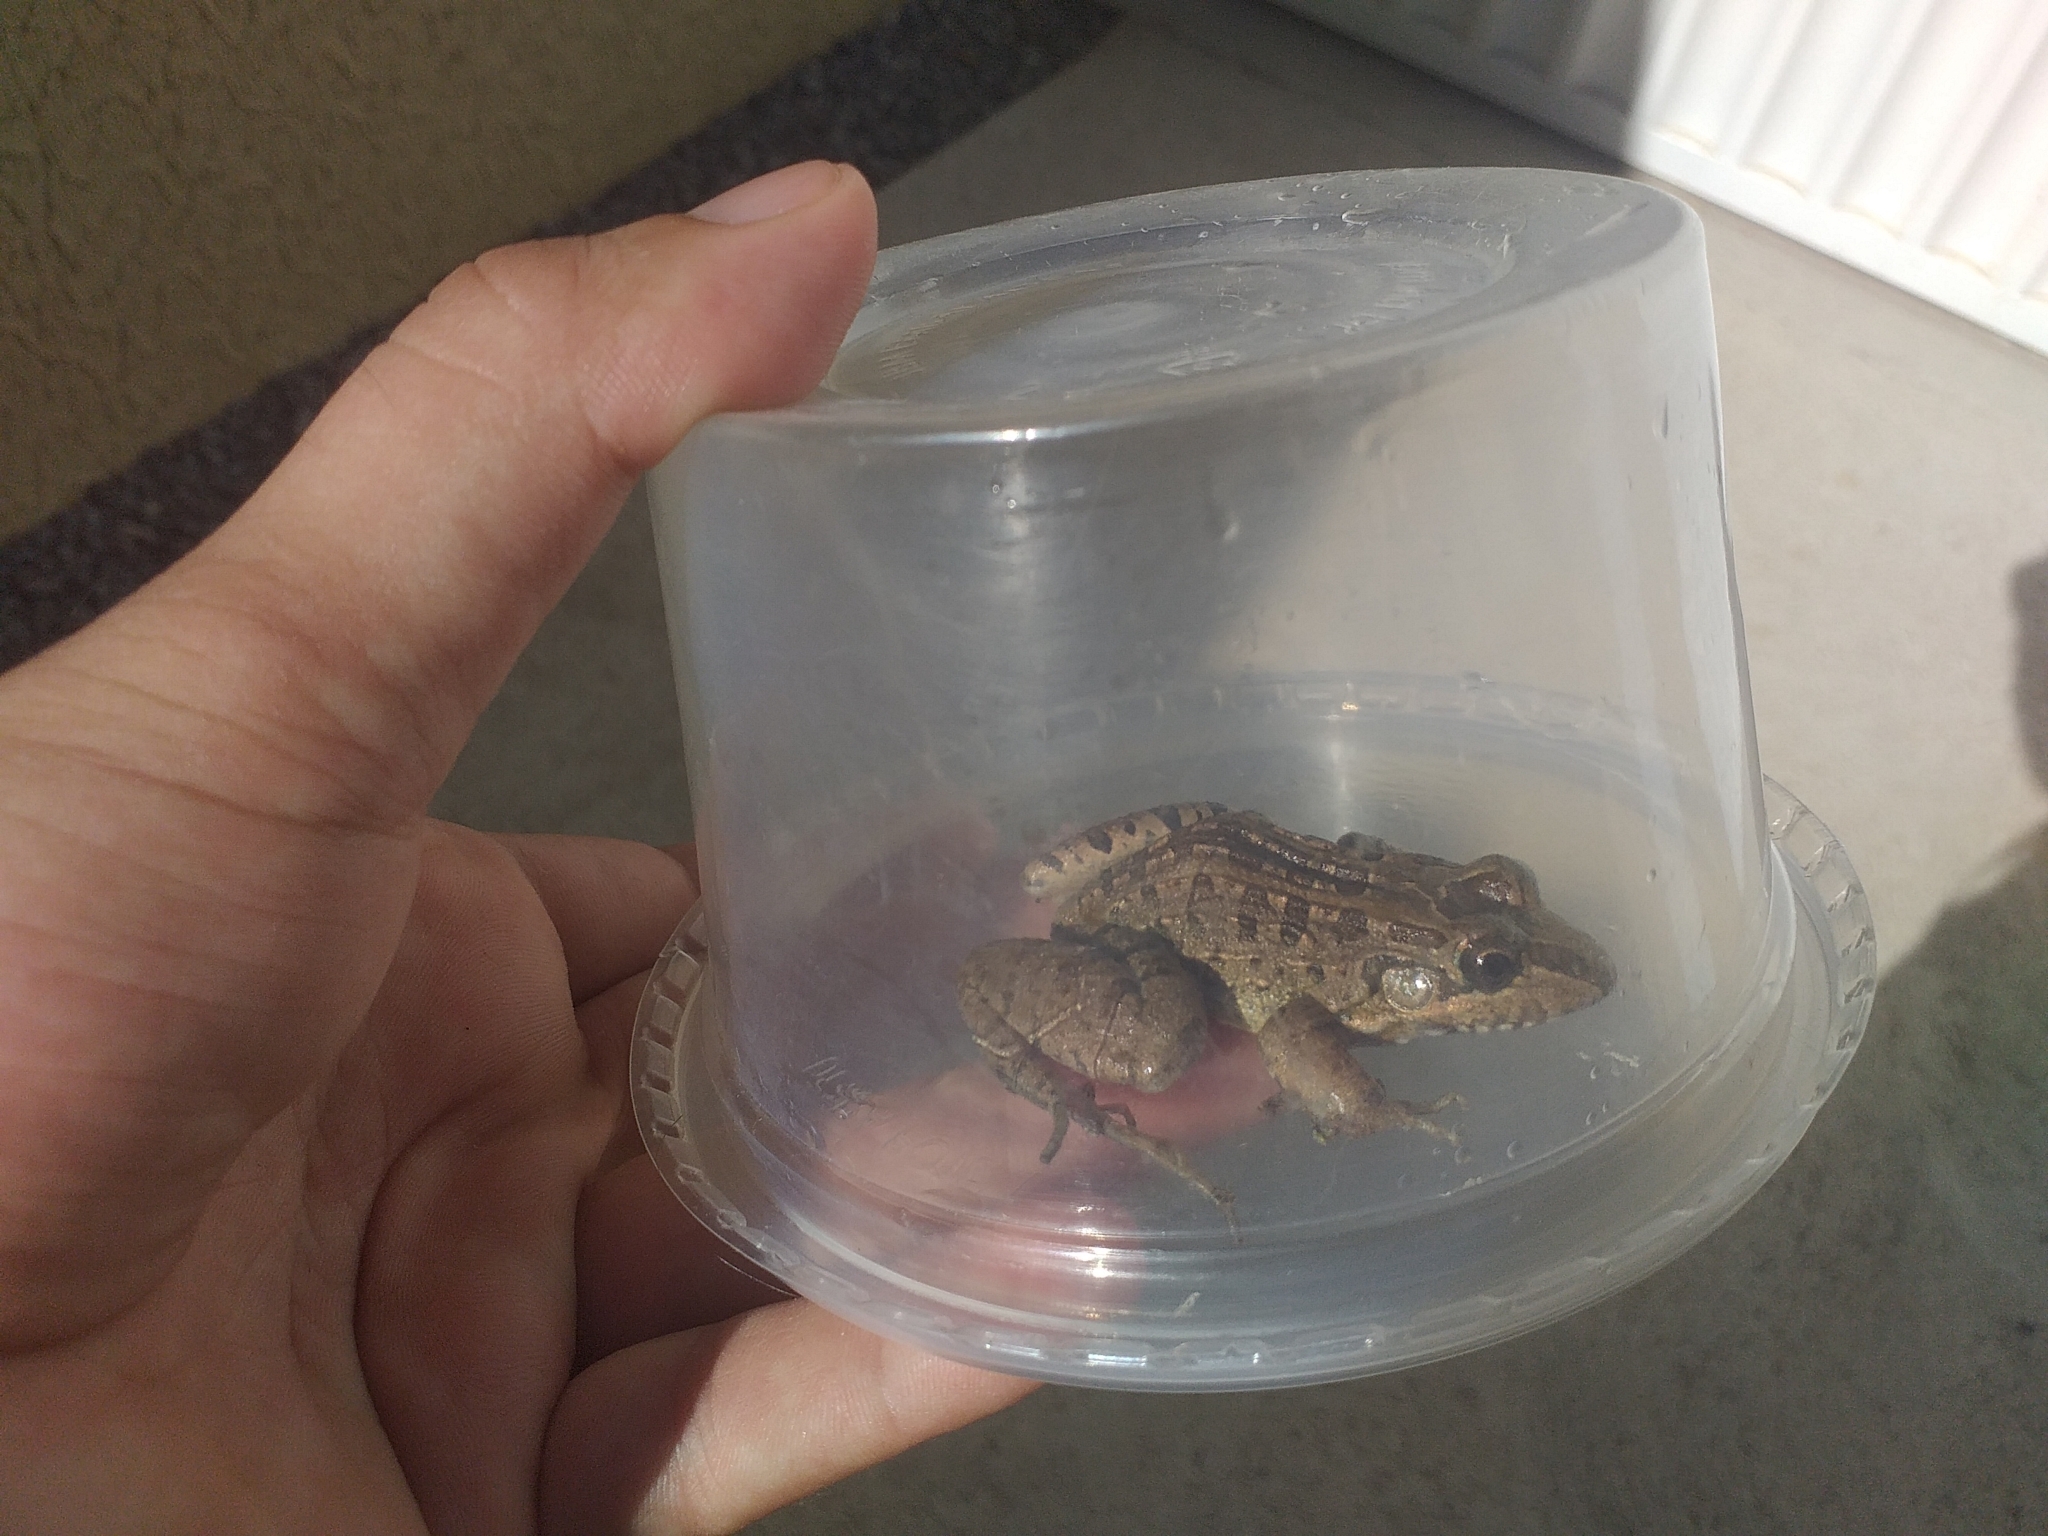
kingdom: Animalia
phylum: Chordata
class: Amphibia
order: Anura
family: Leptodactylidae
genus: Leptodactylus
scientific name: Leptodactylus macrosternum
